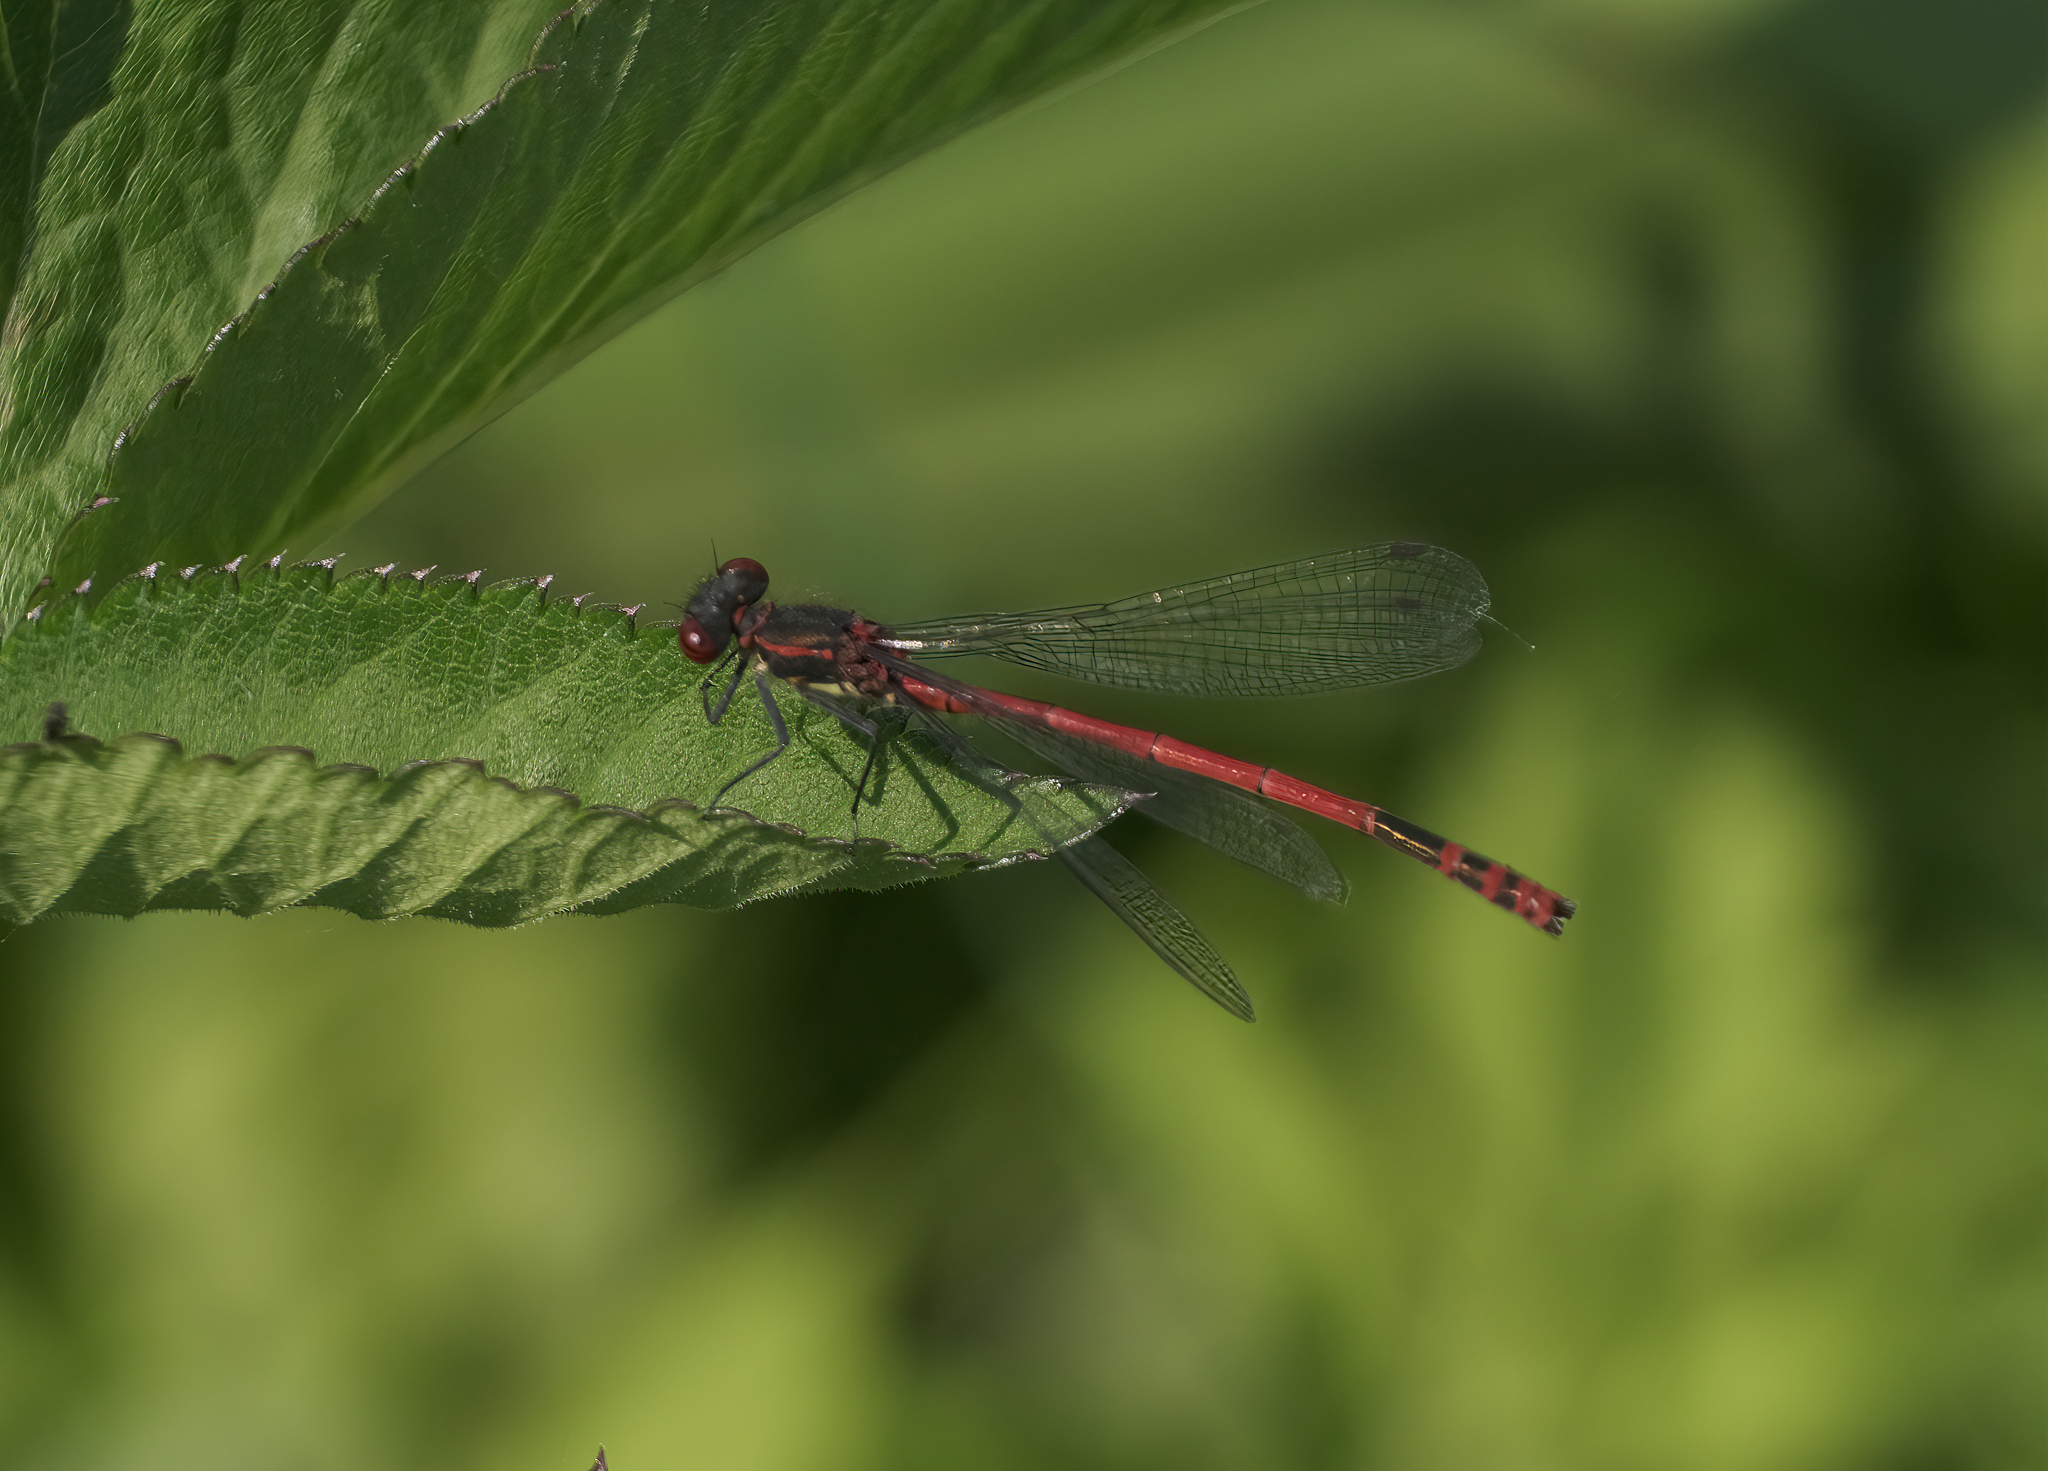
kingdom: Animalia
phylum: Arthropoda
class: Insecta
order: Odonata
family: Coenagrionidae
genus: Pyrrhosoma
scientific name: Pyrrhosoma nymphula
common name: Large red damsel
